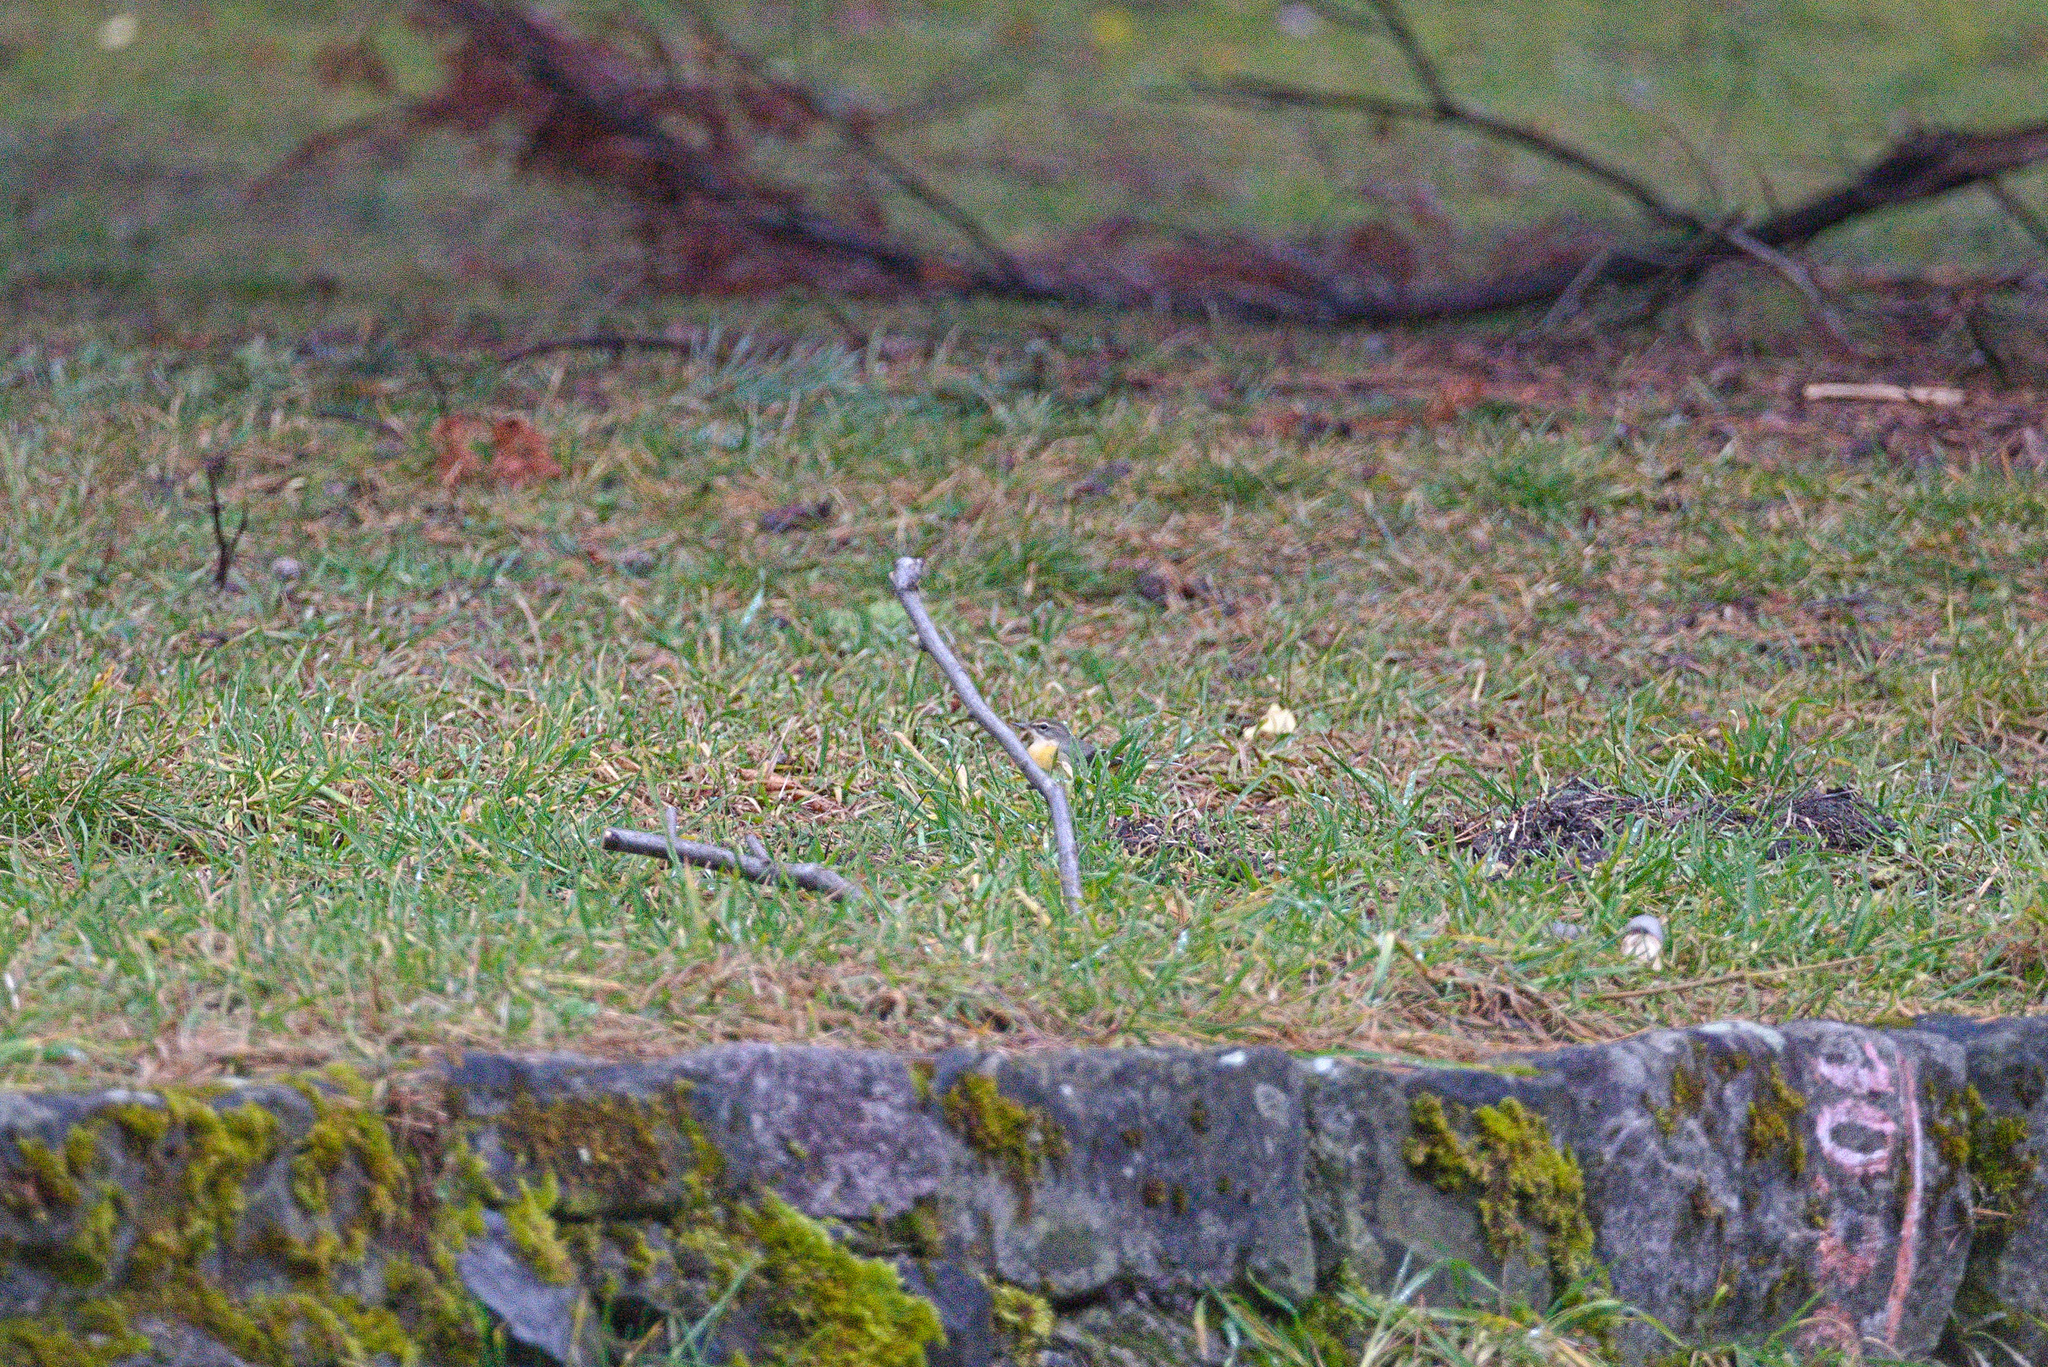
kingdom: Animalia
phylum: Chordata
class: Aves
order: Passeriformes
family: Motacillidae
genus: Motacilla
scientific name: Motacilla cinerea
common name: Grey wagtail
